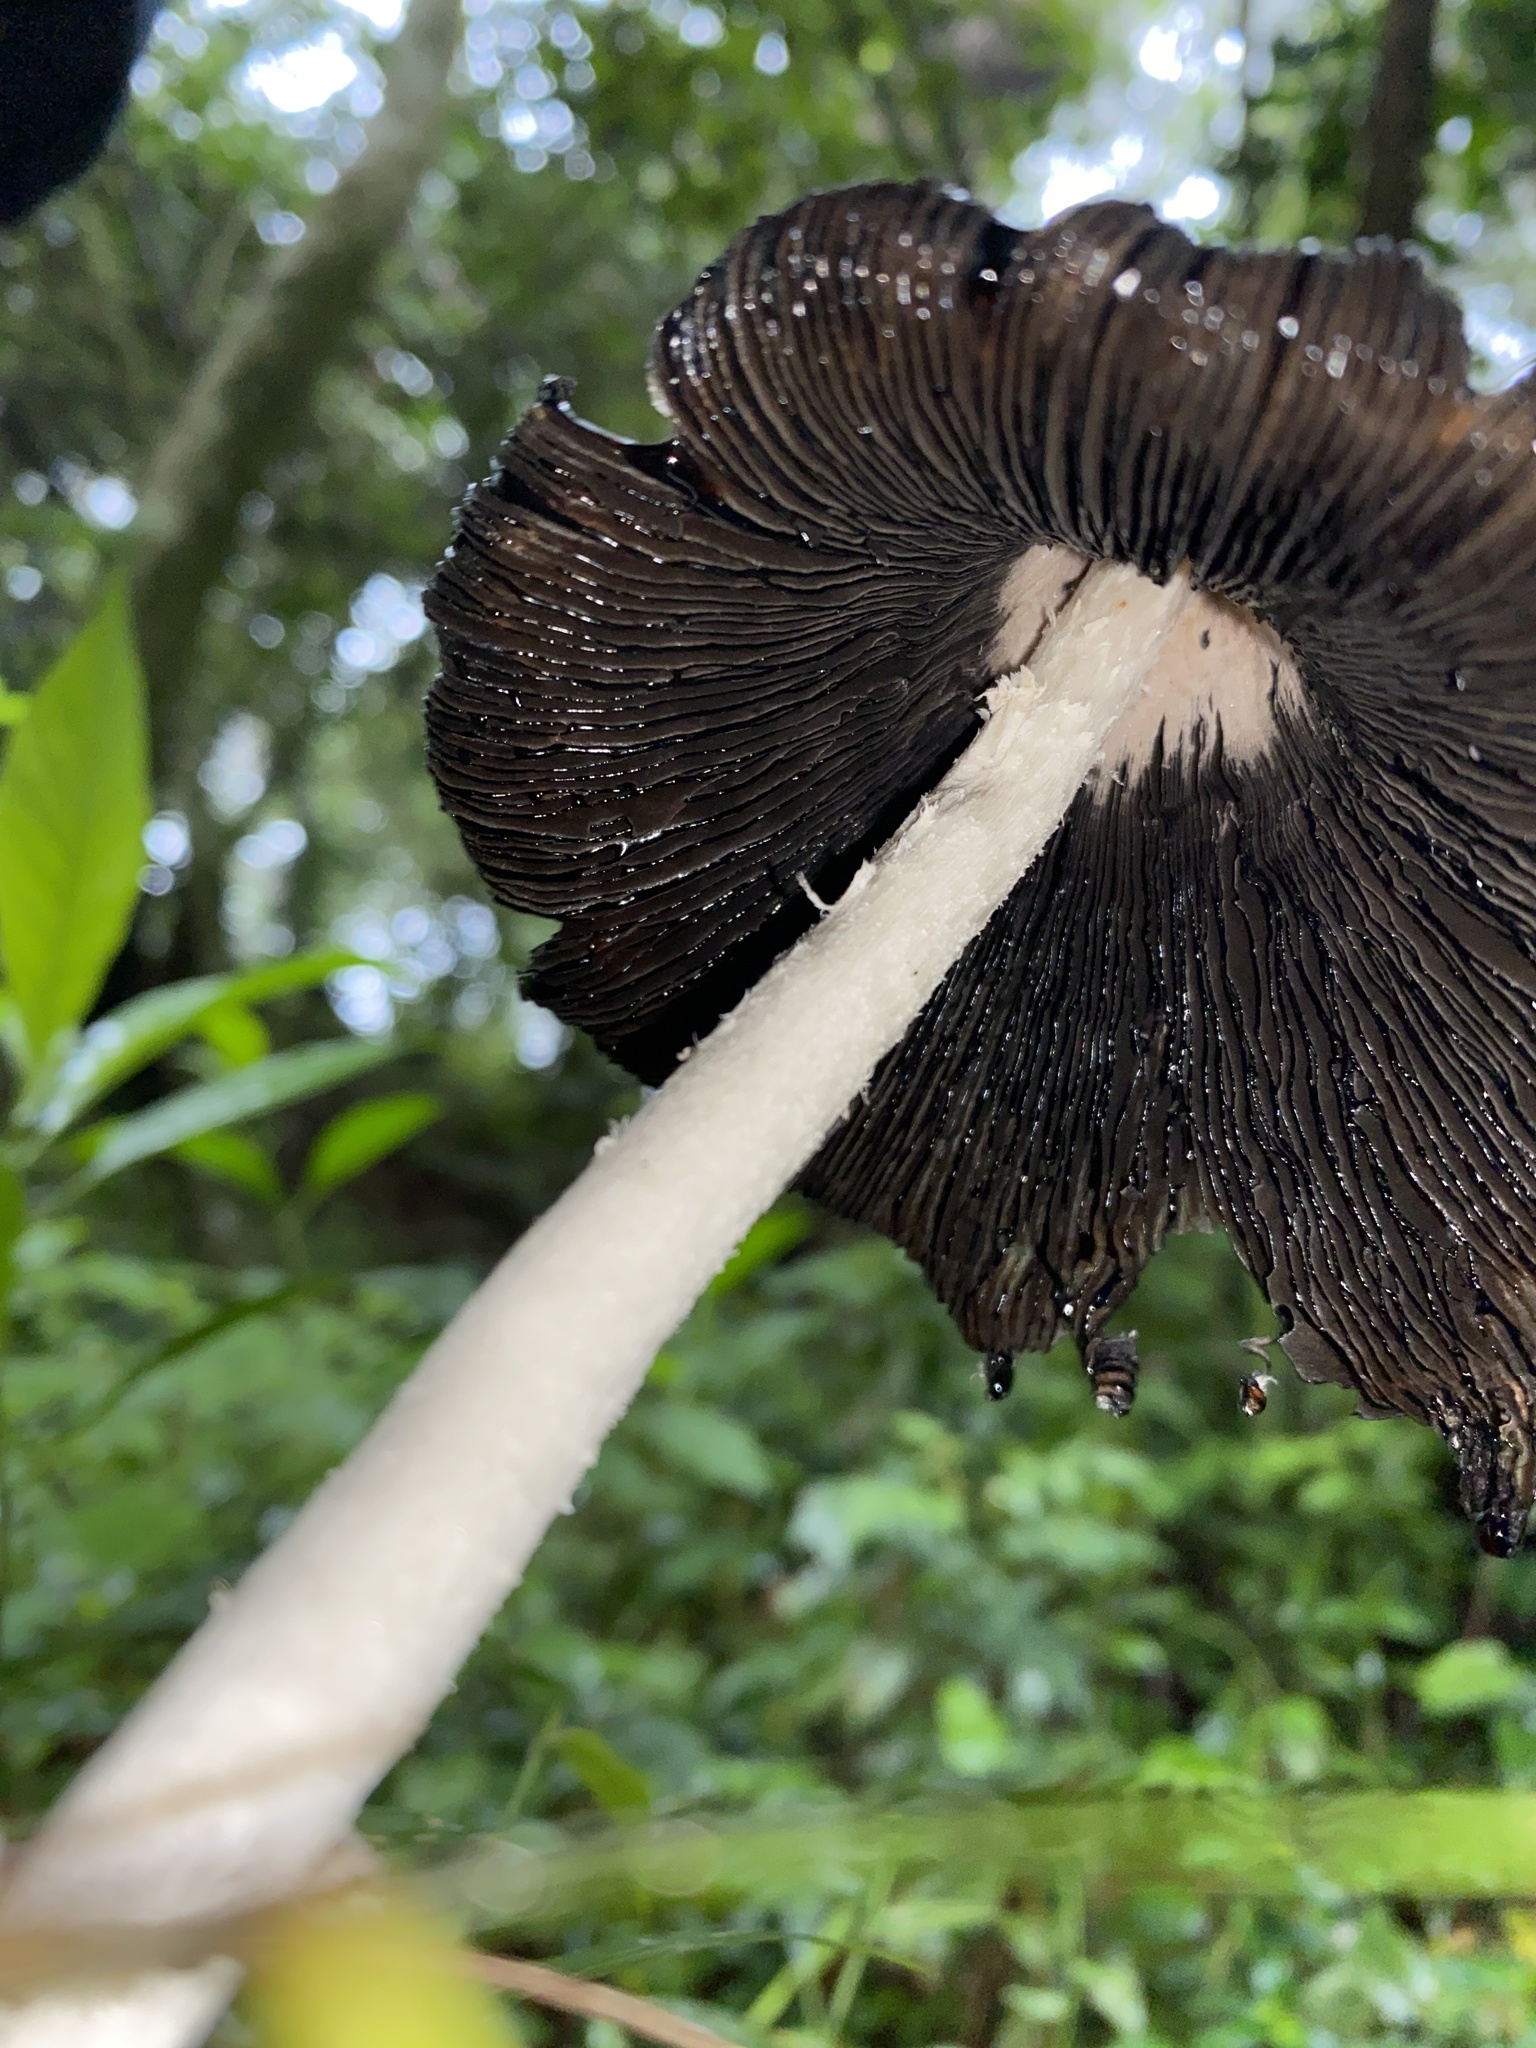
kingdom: Fungi
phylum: Basidiomycota
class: Agaricomycetes
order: Agaricales
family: Agaricaceae
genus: Coprinus
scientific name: Coprinus comatus
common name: Lawyer's wig
